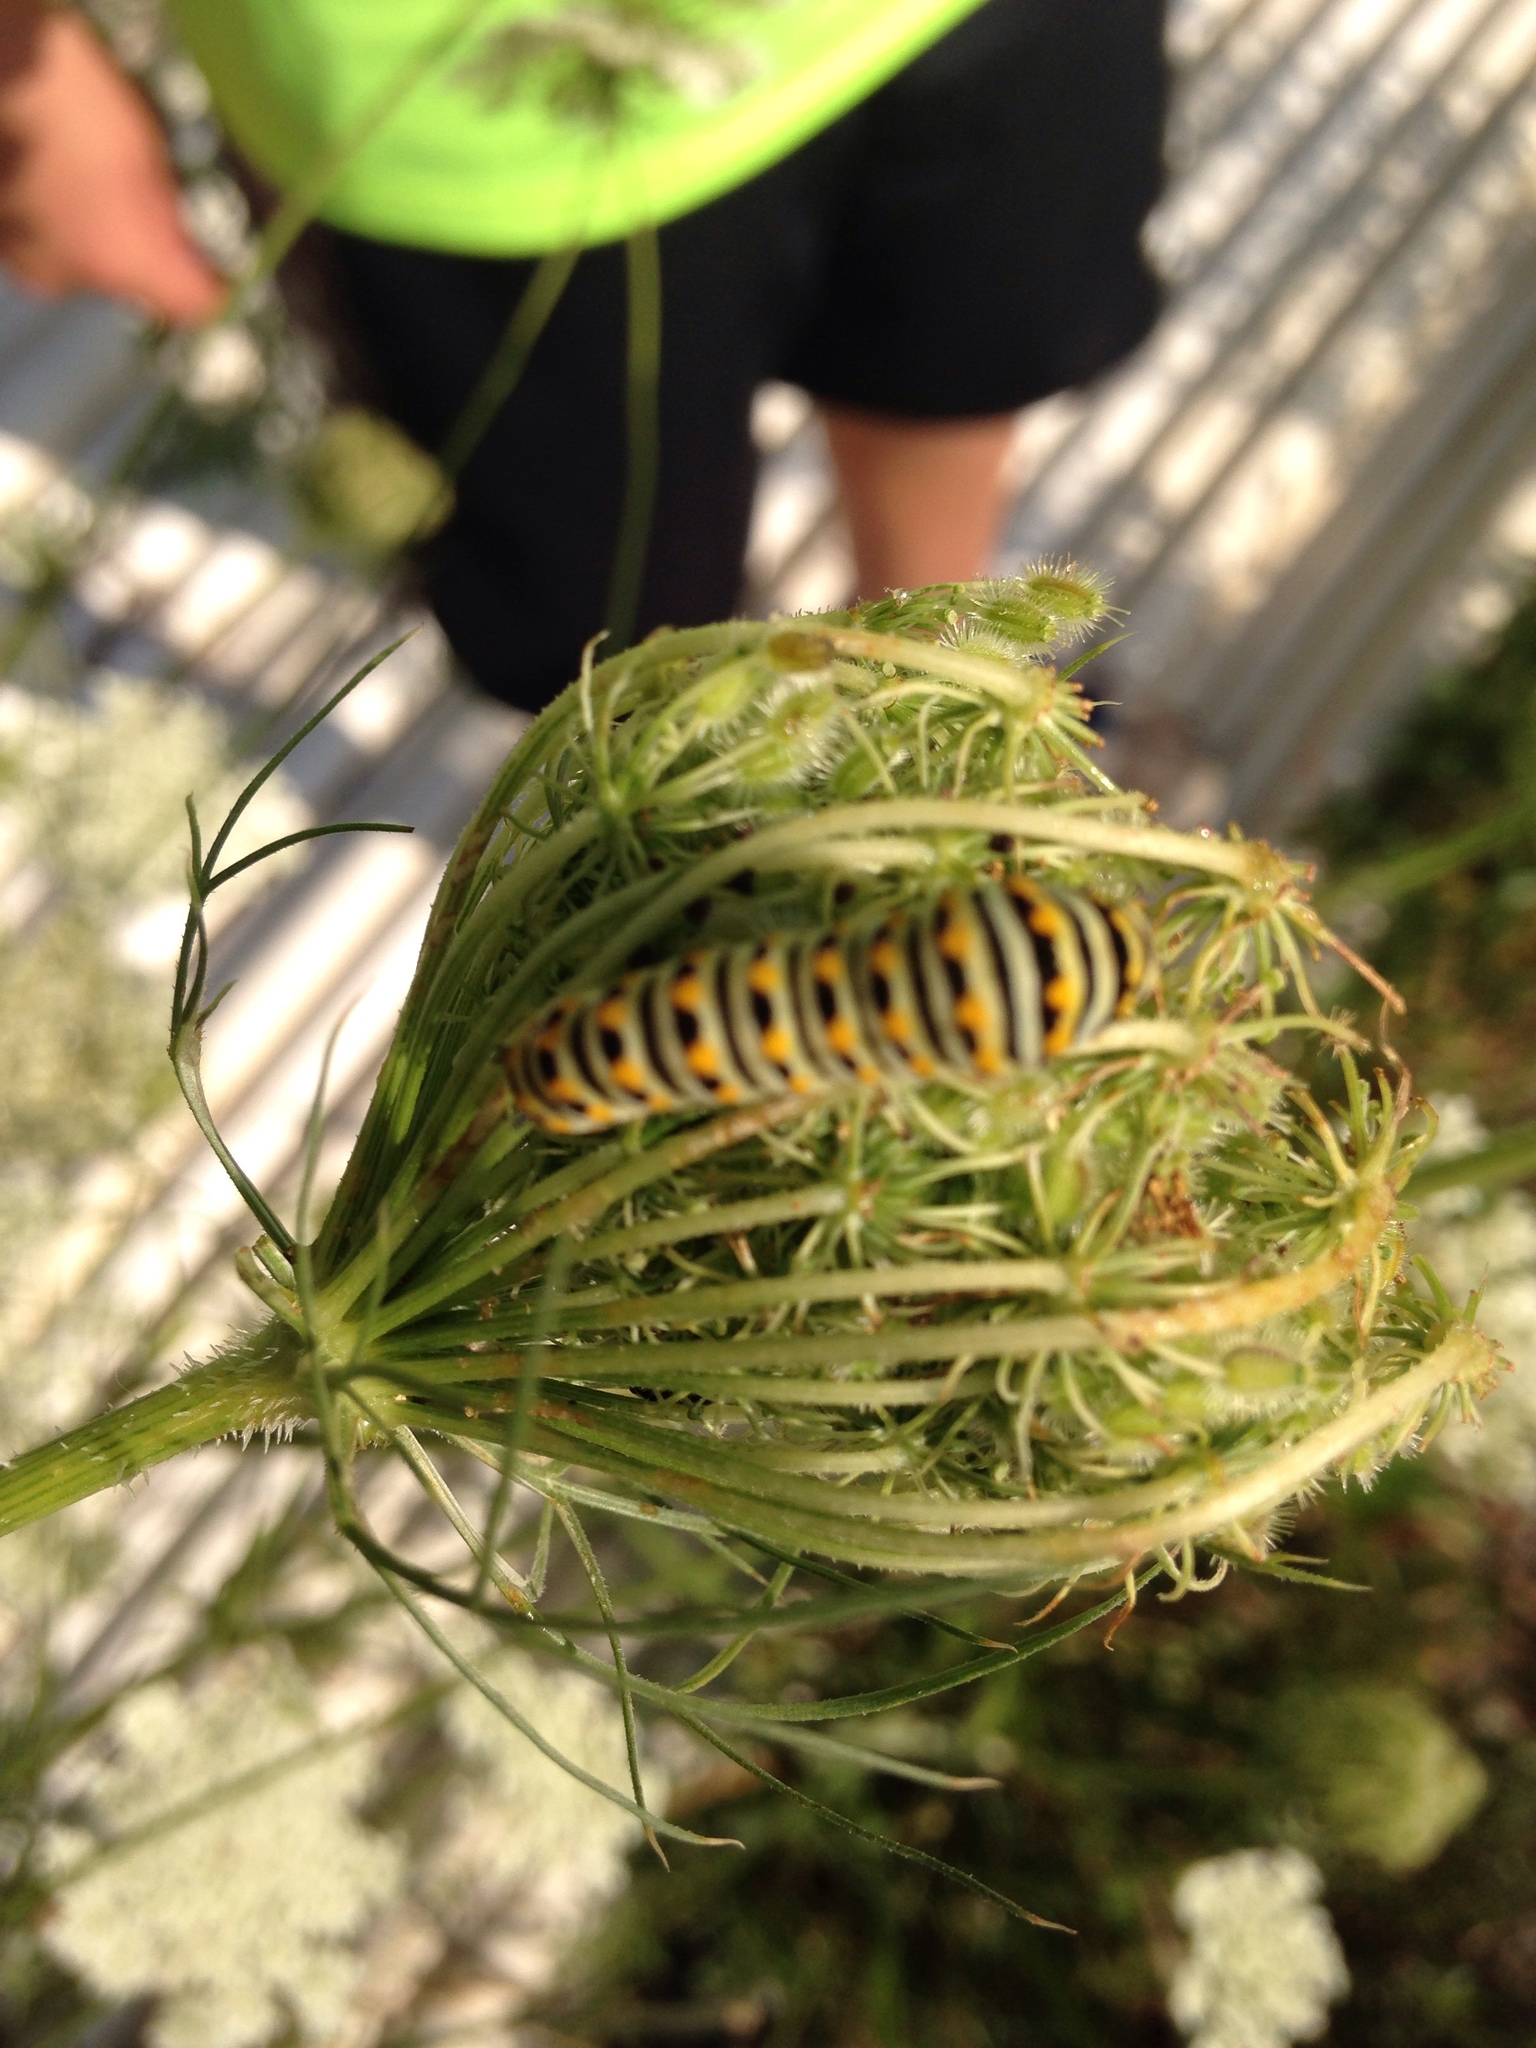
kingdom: Animalia
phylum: Arthropoda
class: Insecta
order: Lepidoptera
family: Papilionidae
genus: Papilio
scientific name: Papilio polyxenes
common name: Black swallowtail
